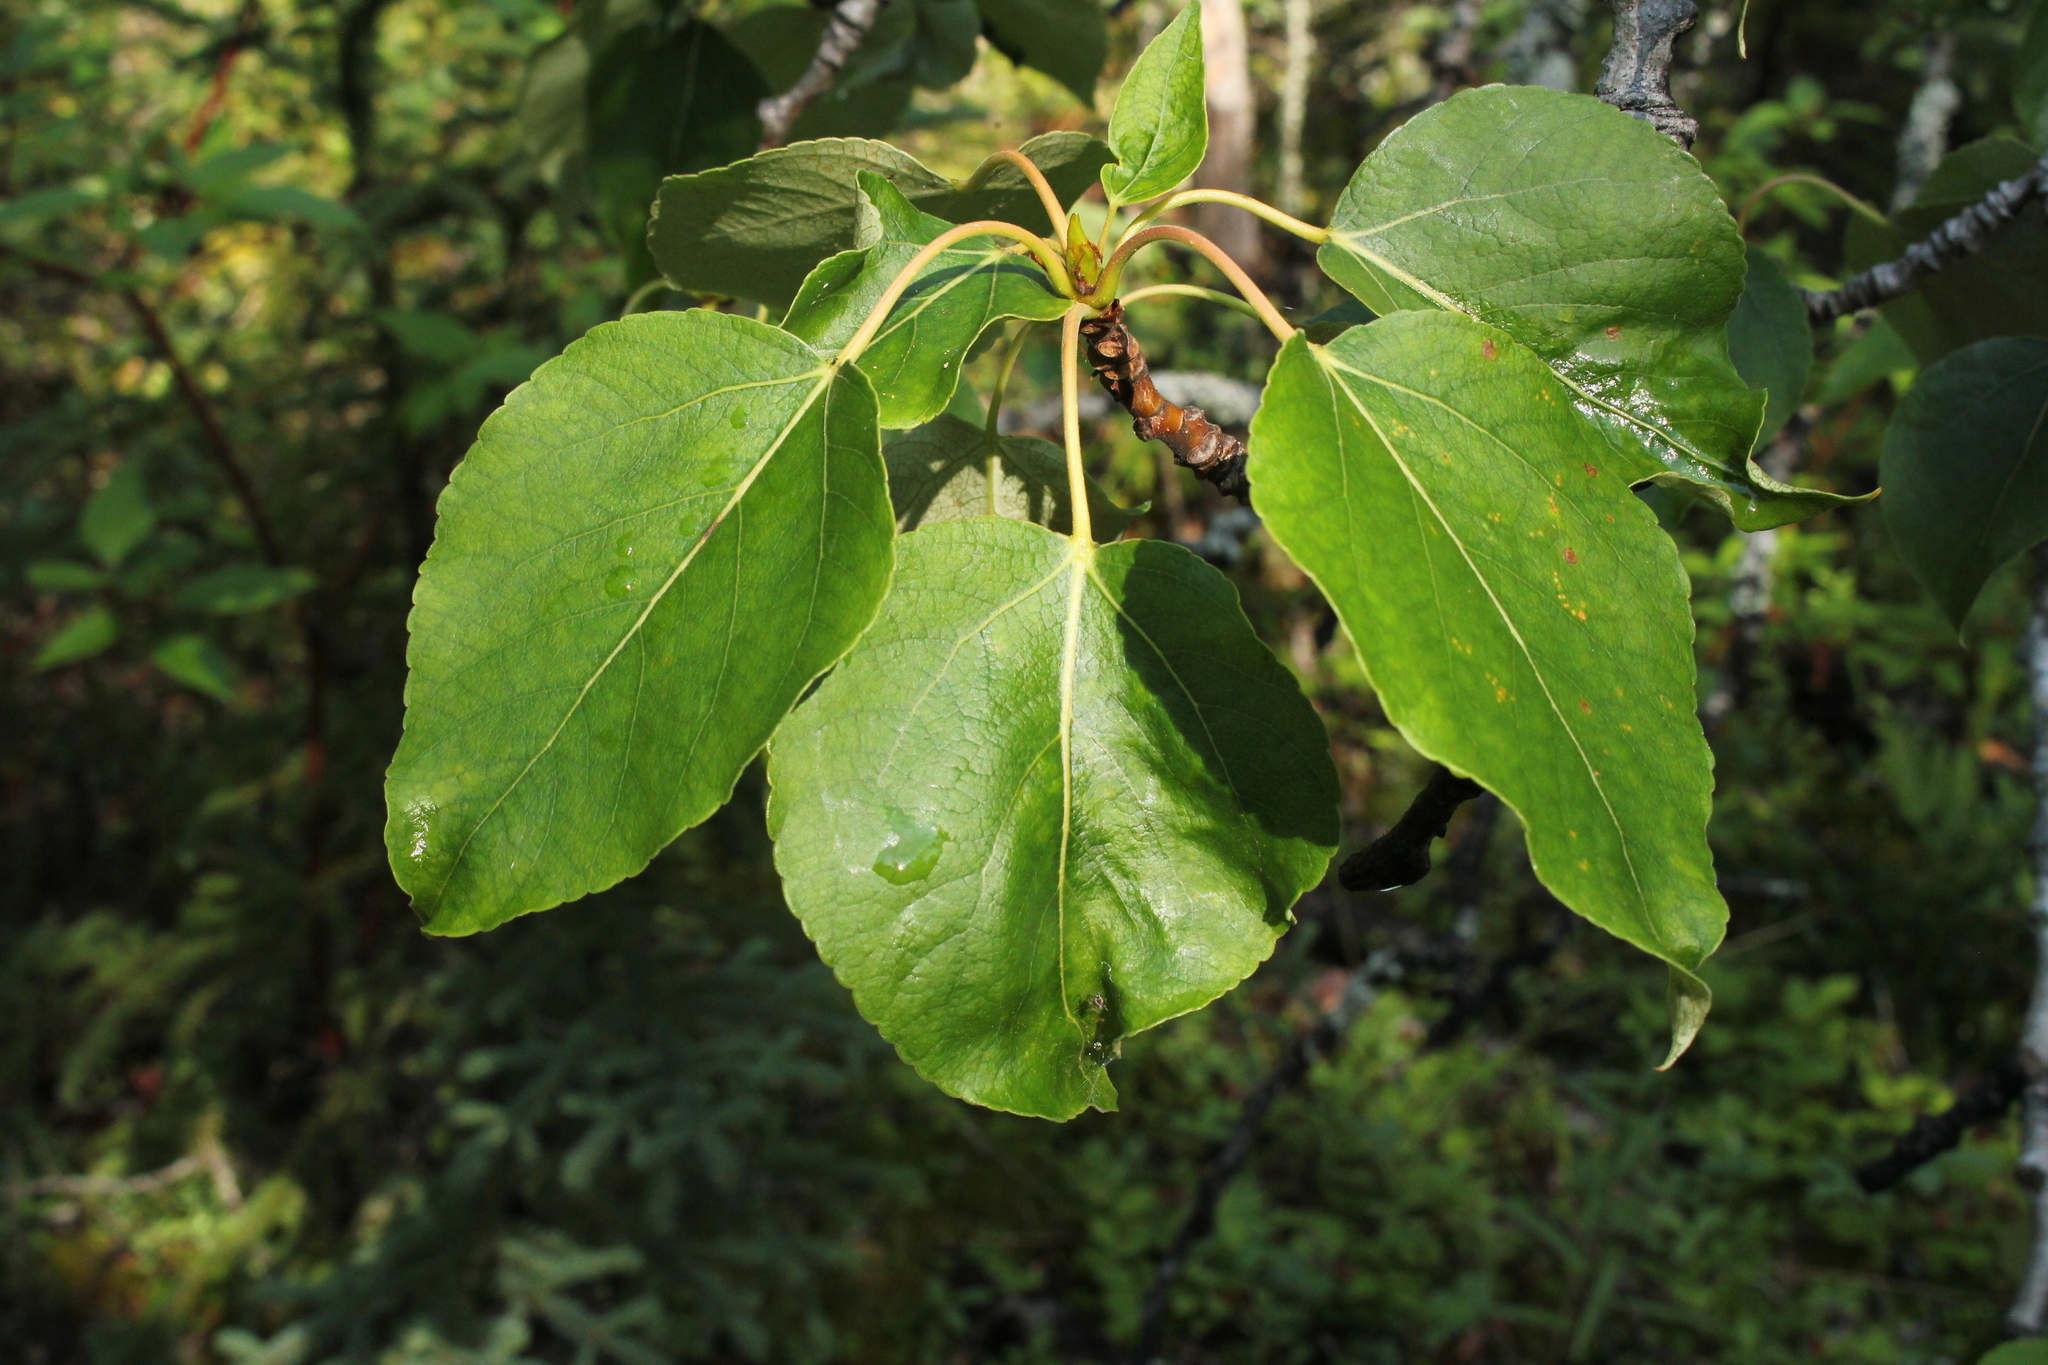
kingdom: Plantae
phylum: Tracheophyta
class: Magnoliopsida
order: Malpighiales
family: Salicaceae
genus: Populus
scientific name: Populus balsamifera
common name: Balsam poplar
